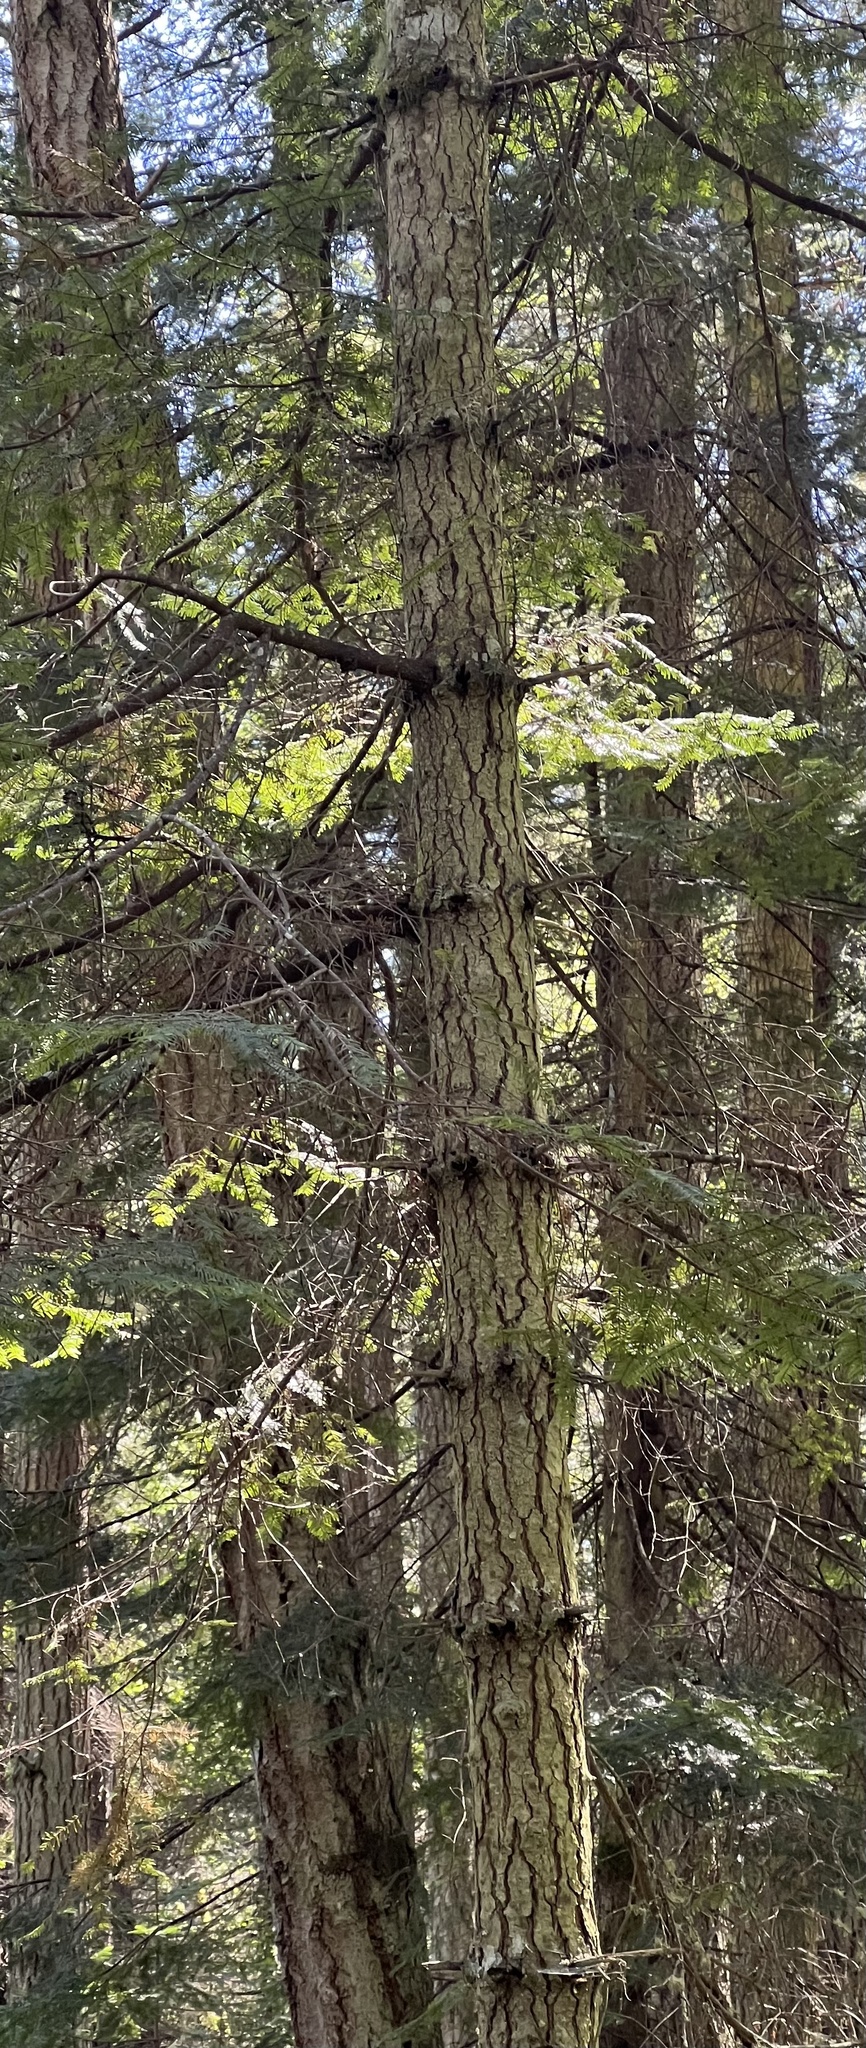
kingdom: Plantae
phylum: Tracheophyta
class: Pinopsida
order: Pinales
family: Pinaceae
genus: Abies
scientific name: Abies grandis
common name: Giant fir
